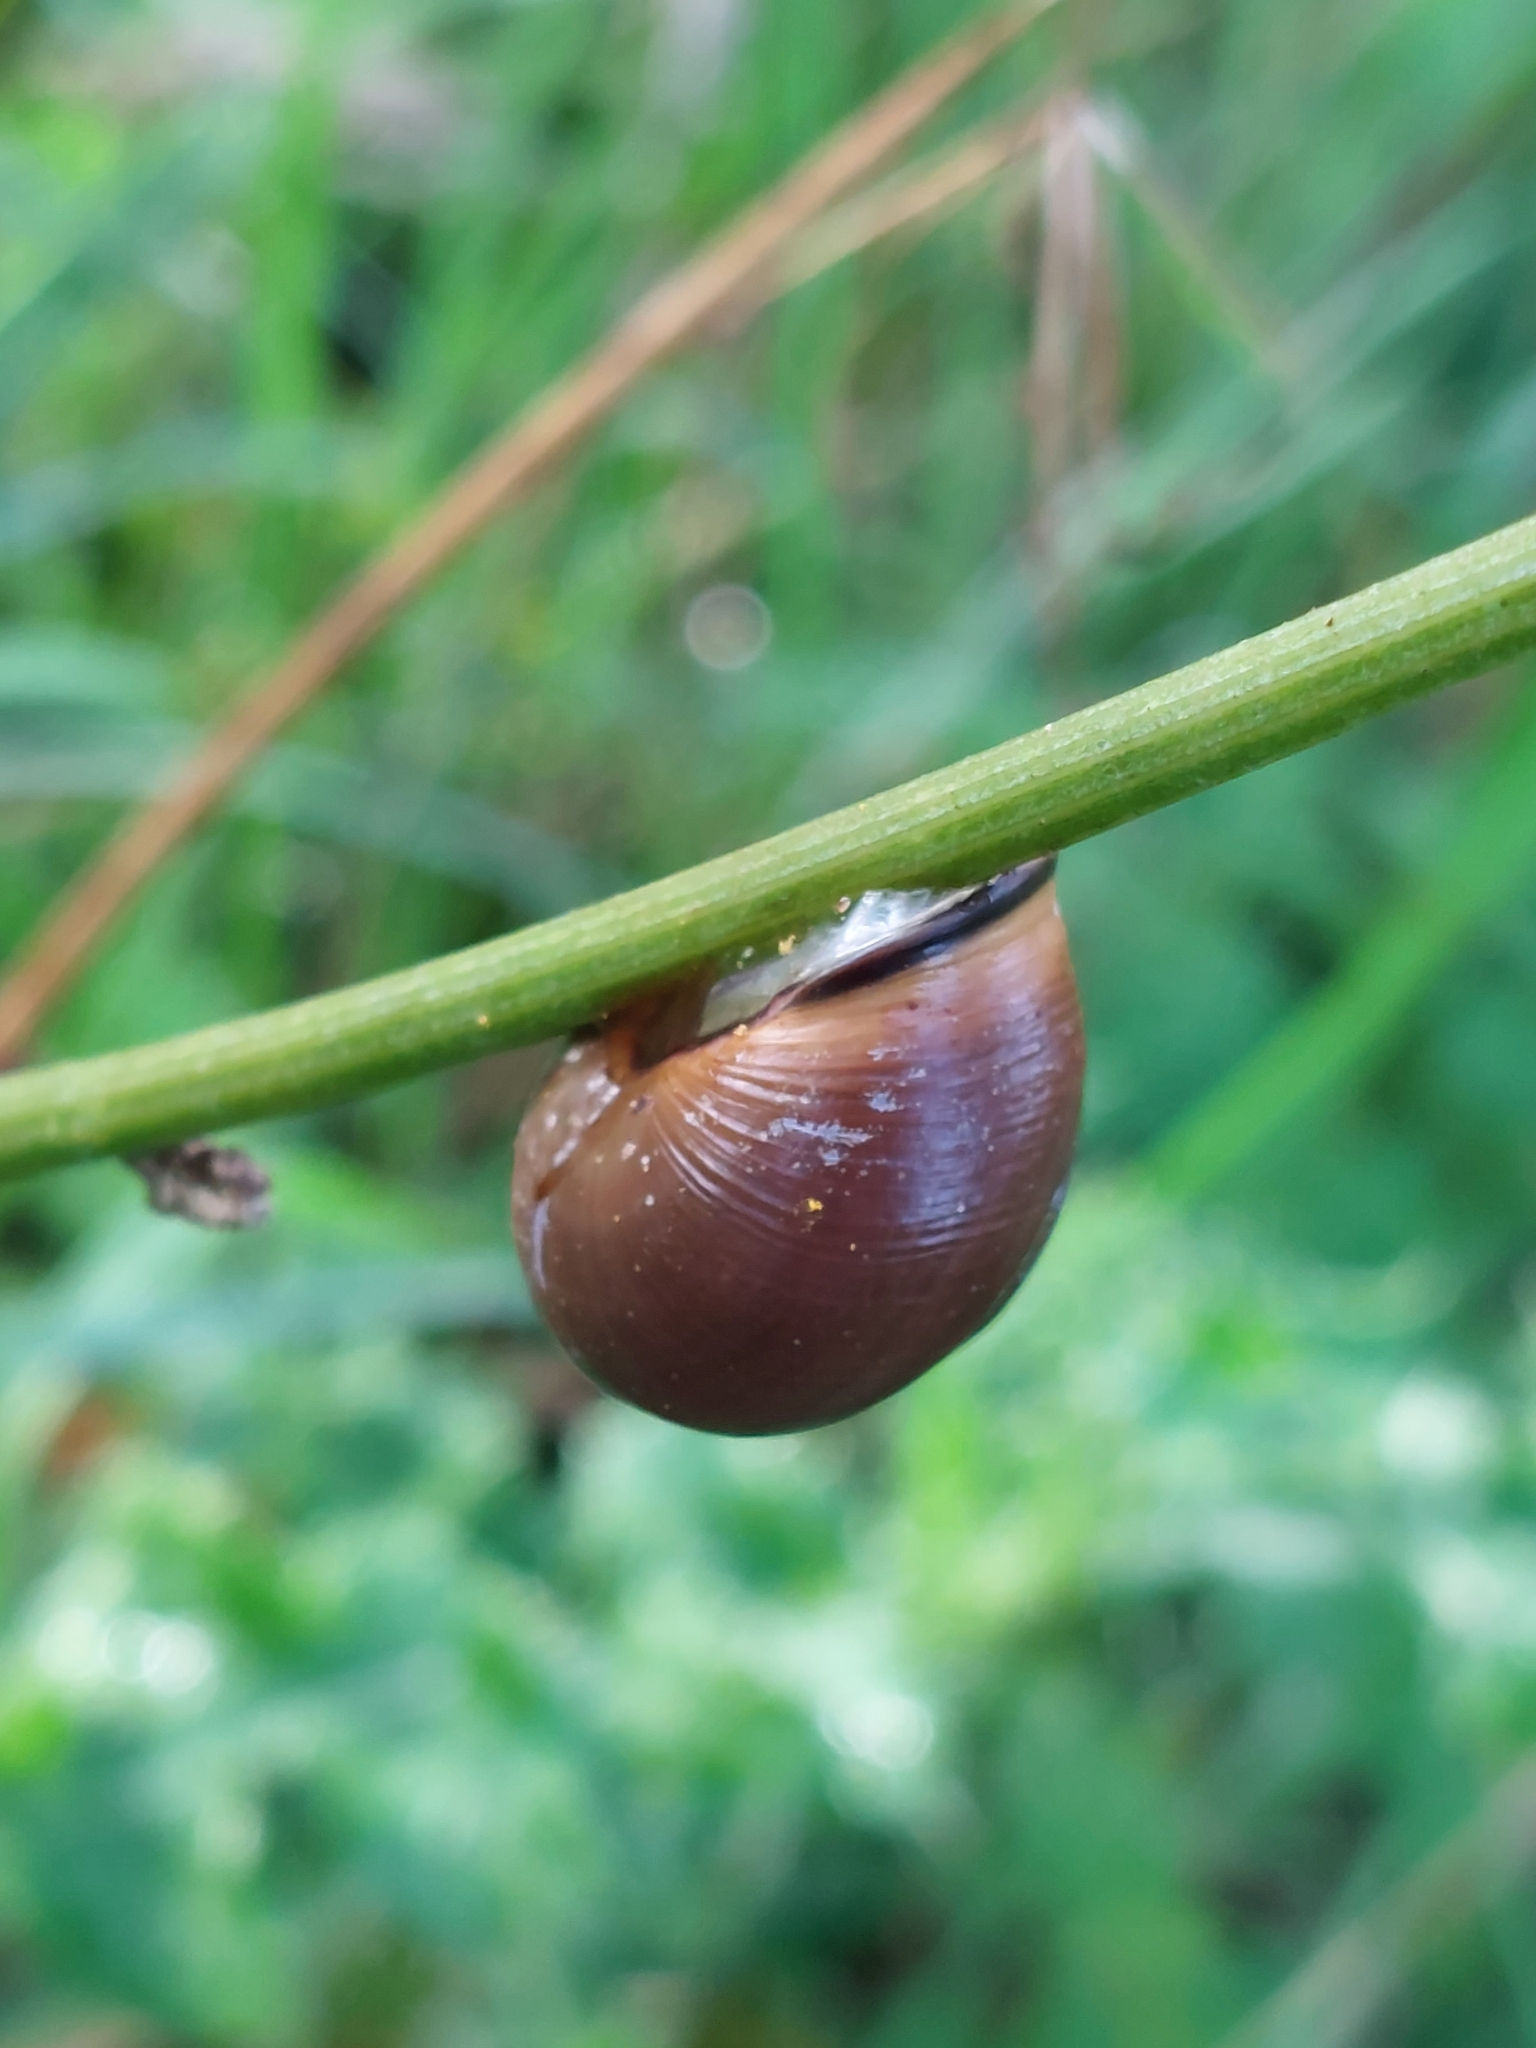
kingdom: Animalia
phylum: Mollusca
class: Gastropoda
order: Stylommatophora
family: Helicidae
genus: Cepaea
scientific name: Cepaea nemoralis
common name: Grovesnail
